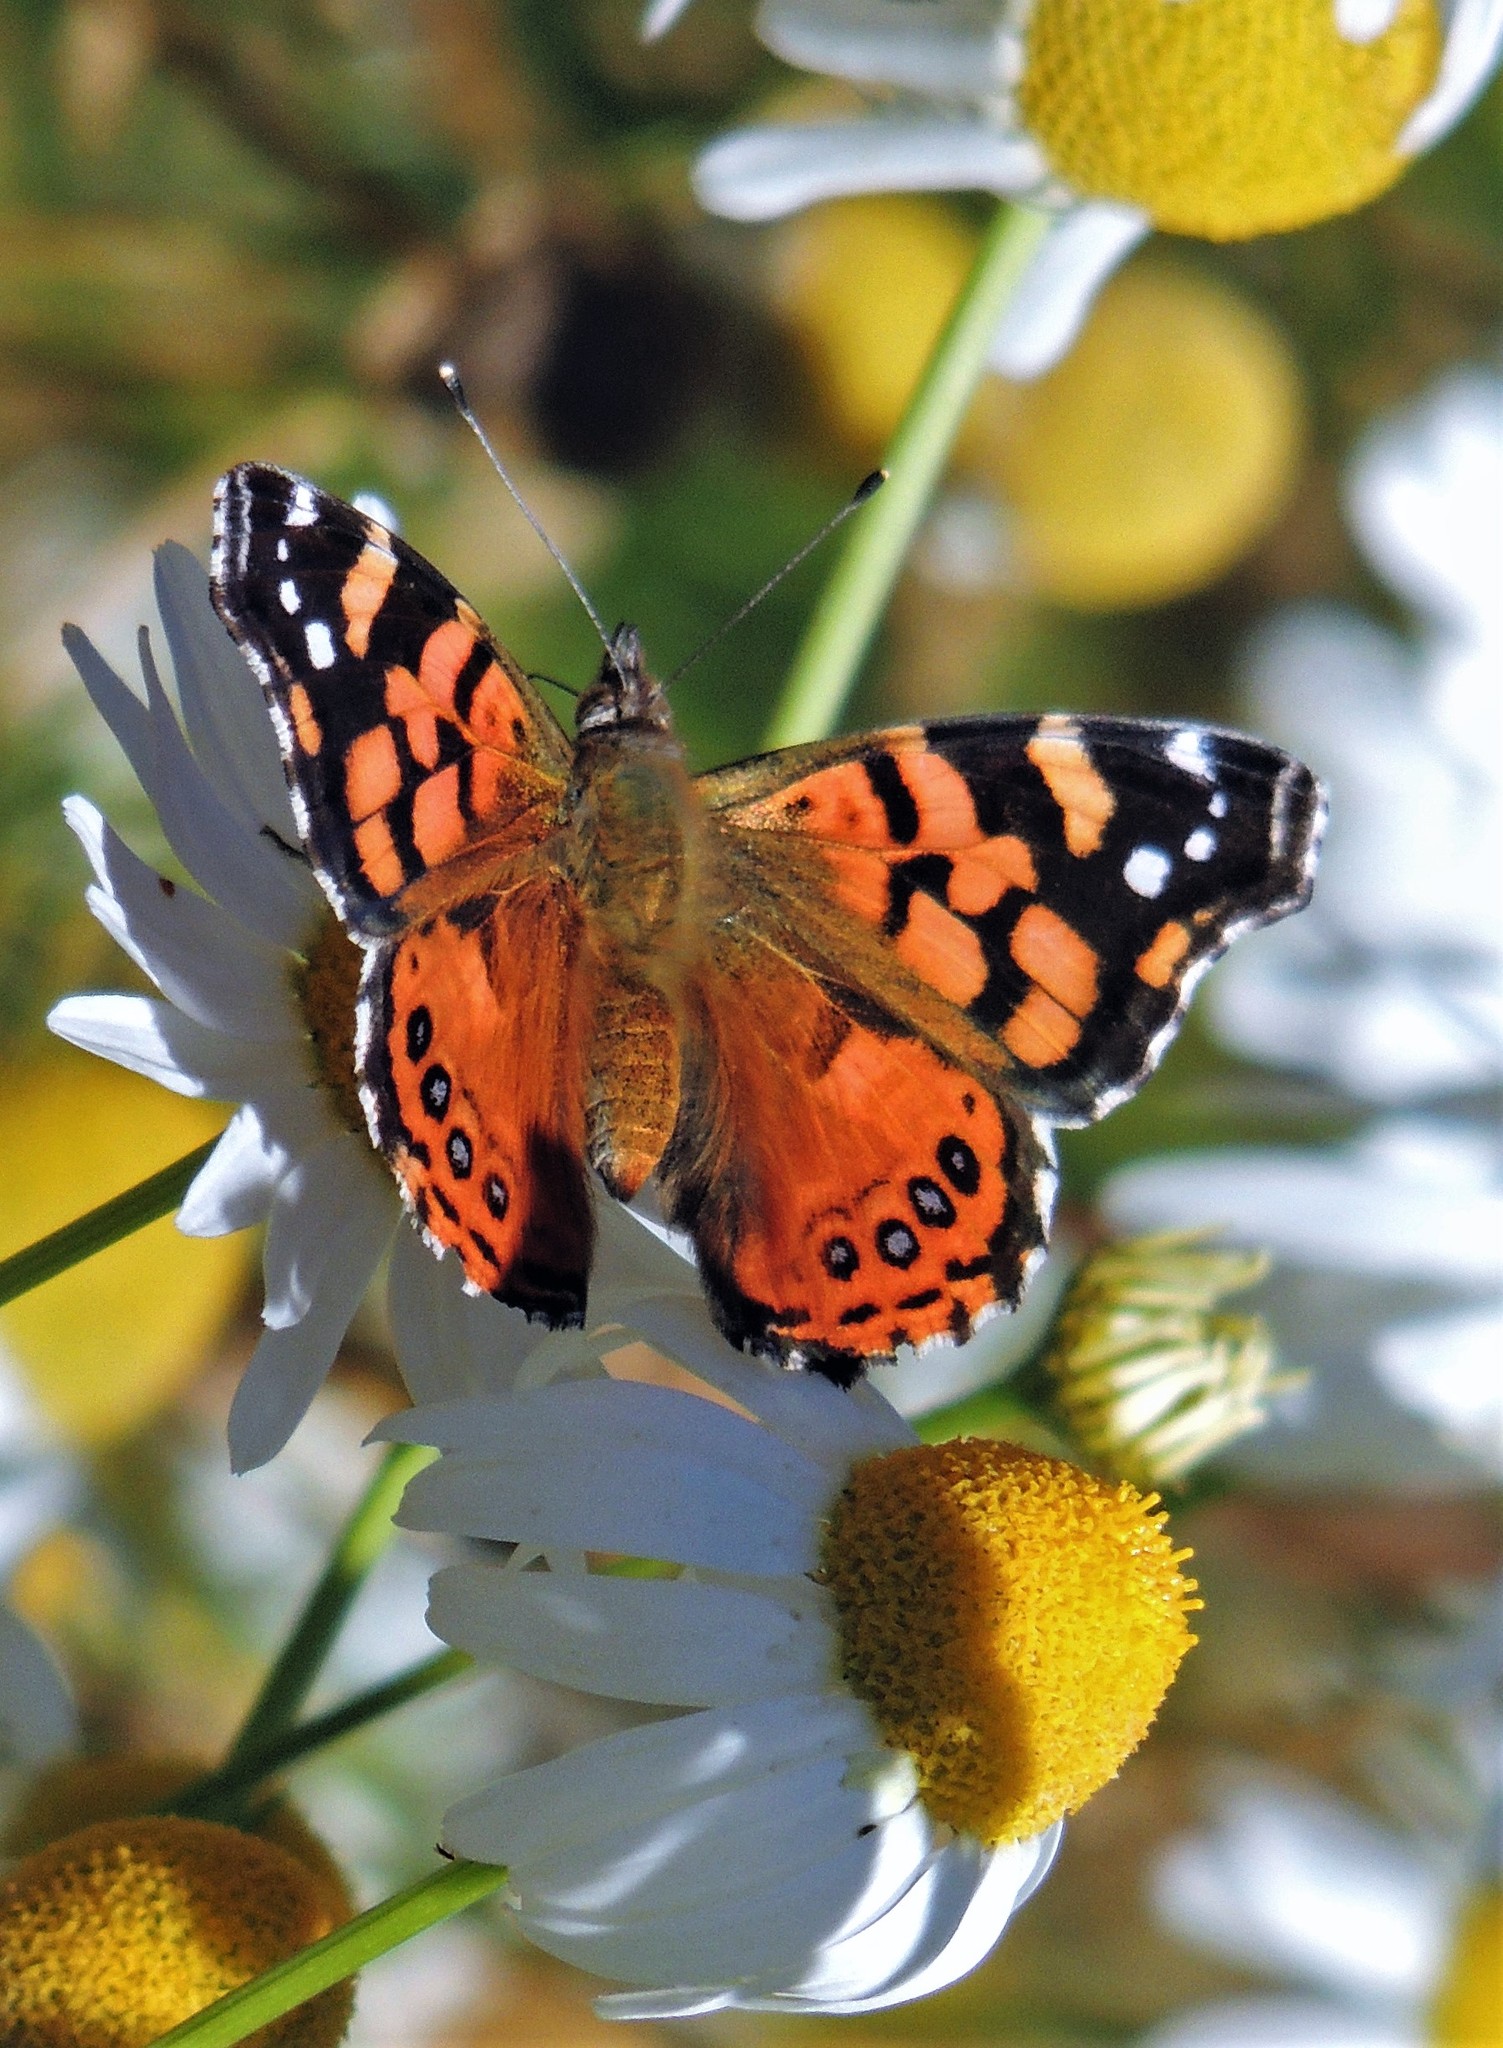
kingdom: Animalia
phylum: Arthropoda
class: Insecta
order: Lepidoptera
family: Nymphalidae
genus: Vanessa
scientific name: Vanessa carye
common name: Subtropical lady
